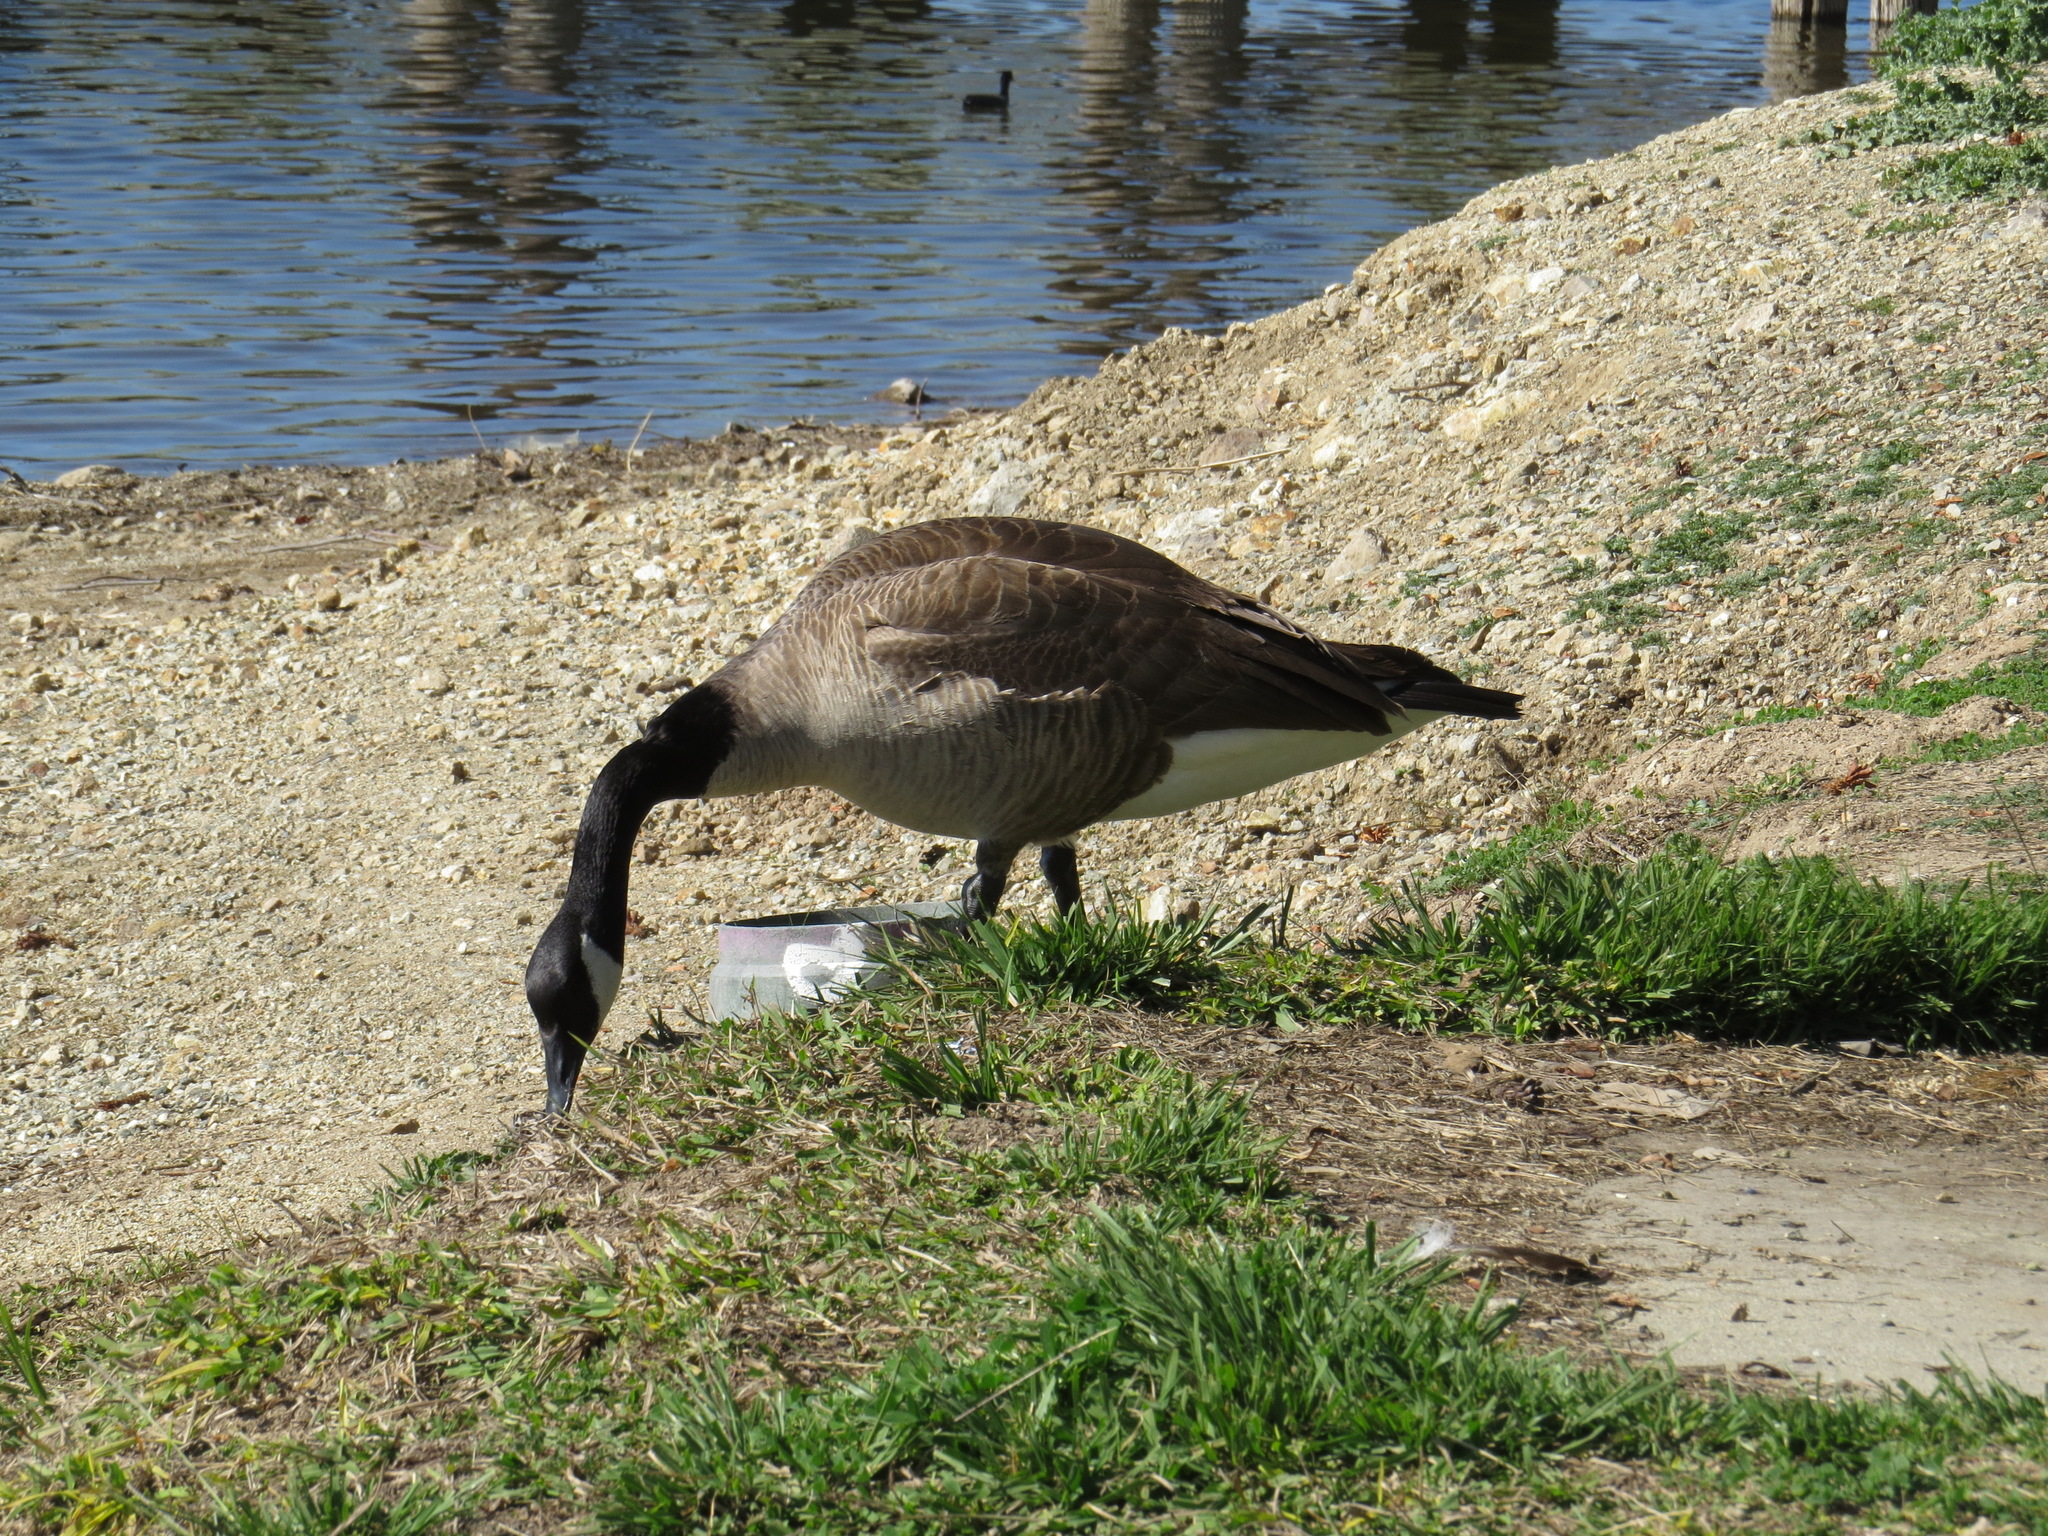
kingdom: Animalia
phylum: Chordata
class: Aves
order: Anseriformes
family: Anatidae
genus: Branta
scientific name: Branta canadensis
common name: Canada goose
